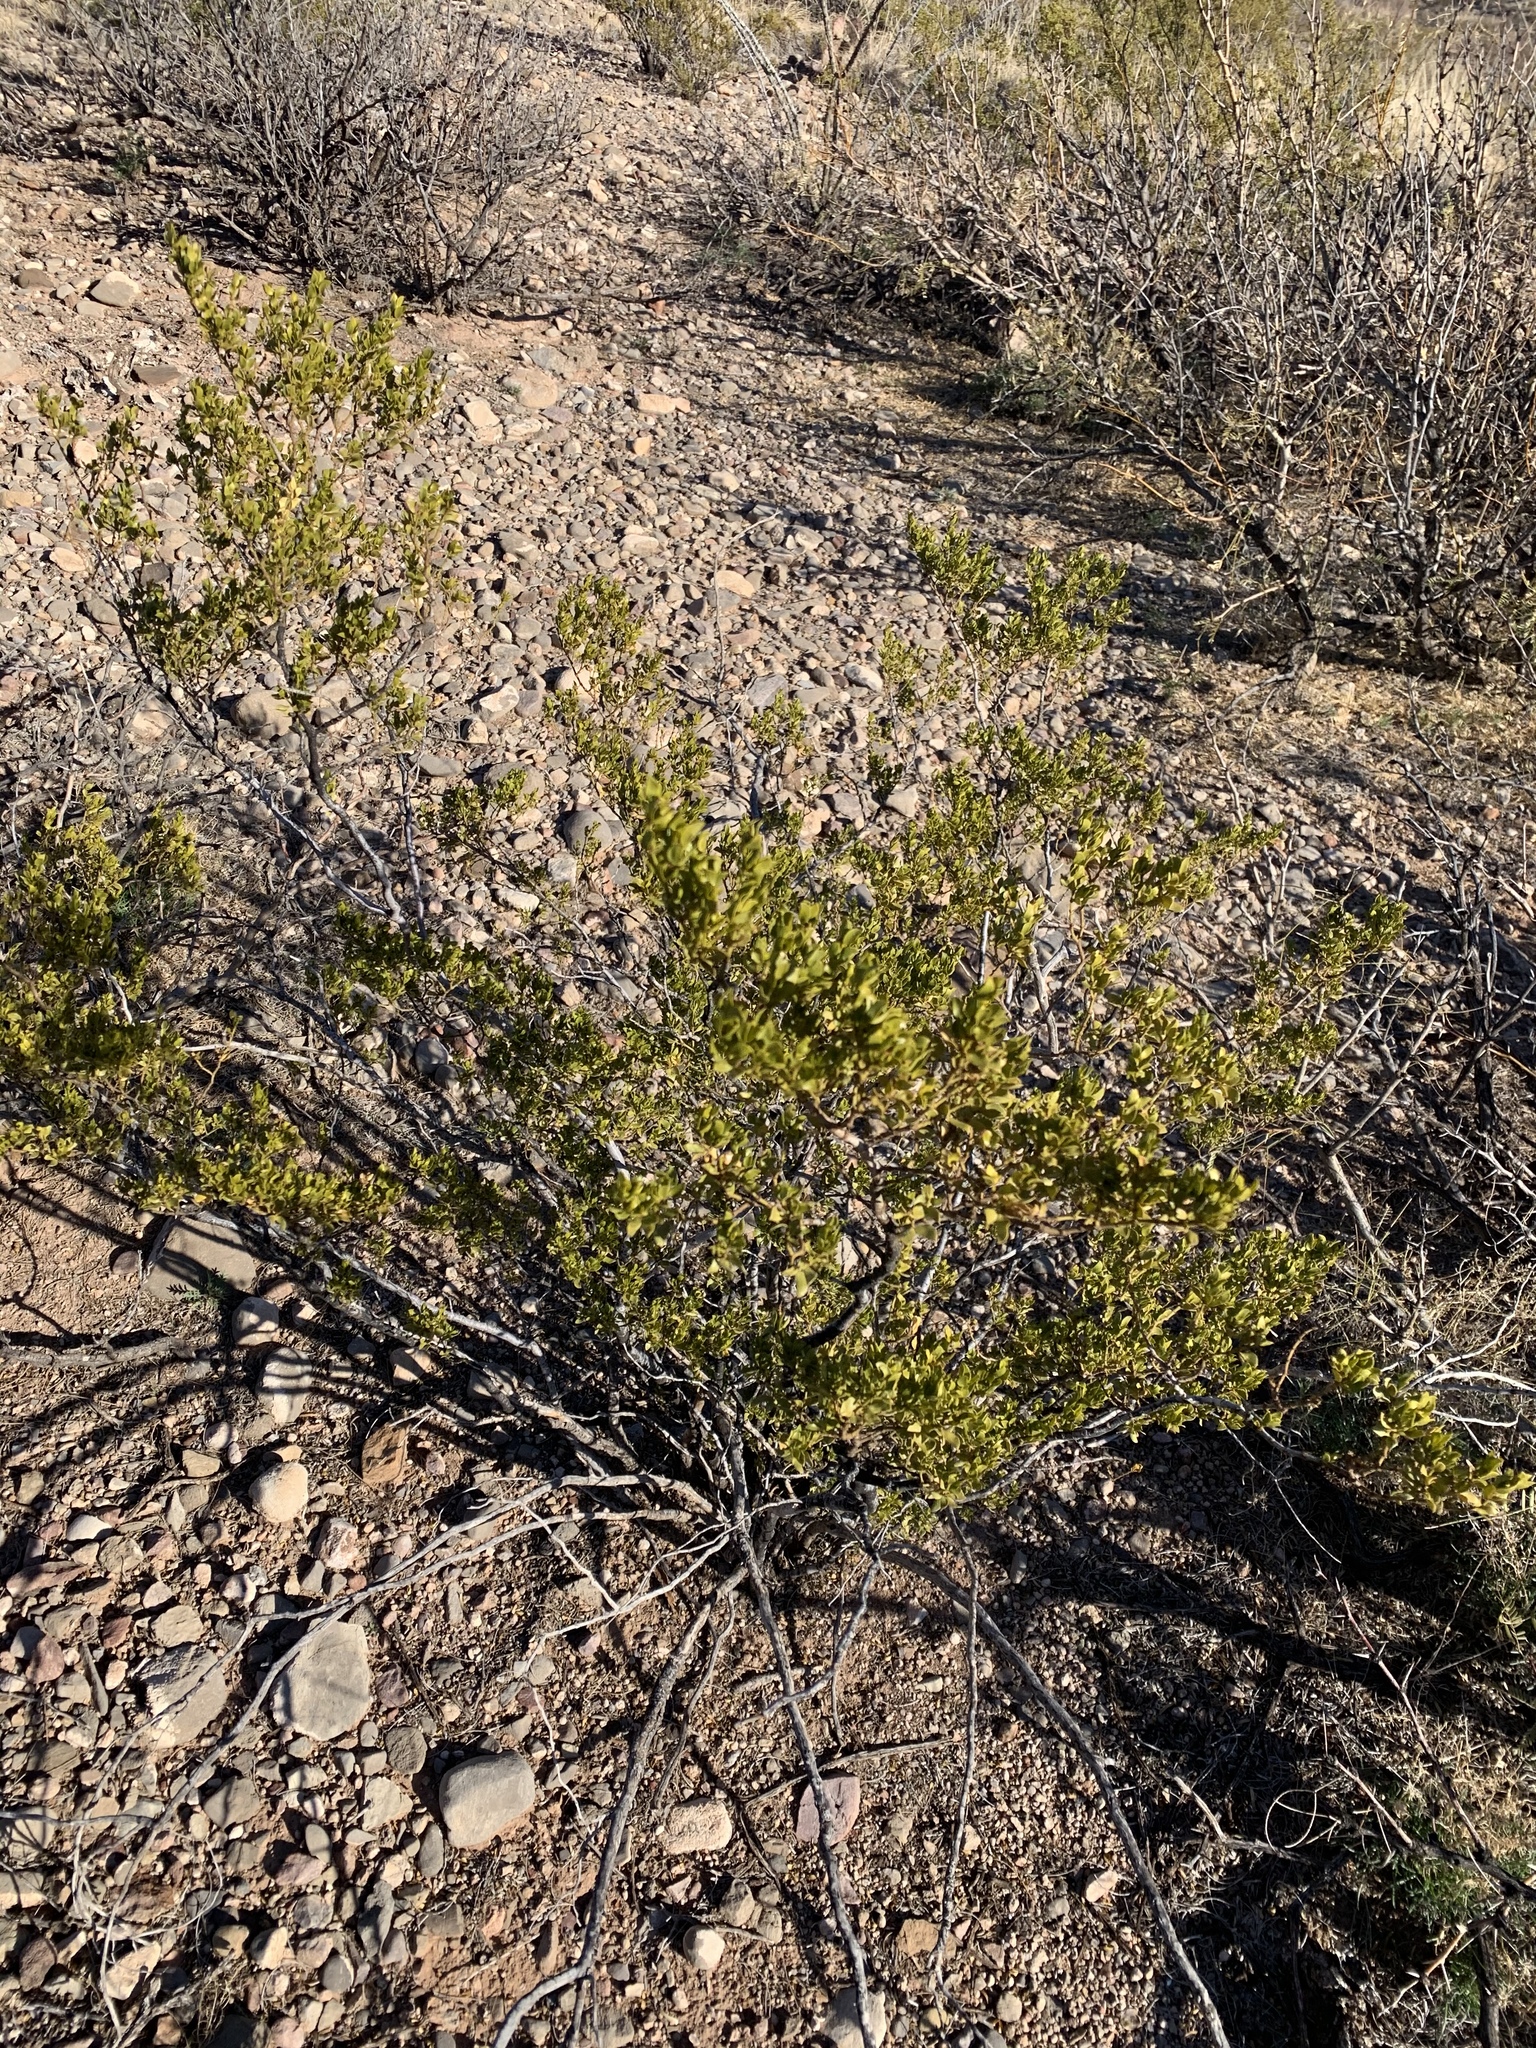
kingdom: Plantae
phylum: Tracheophyta
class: Magnoliopsida
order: Zygophyllales
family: Zygophyllaceae
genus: Larrea
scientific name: Larrea tridentata
